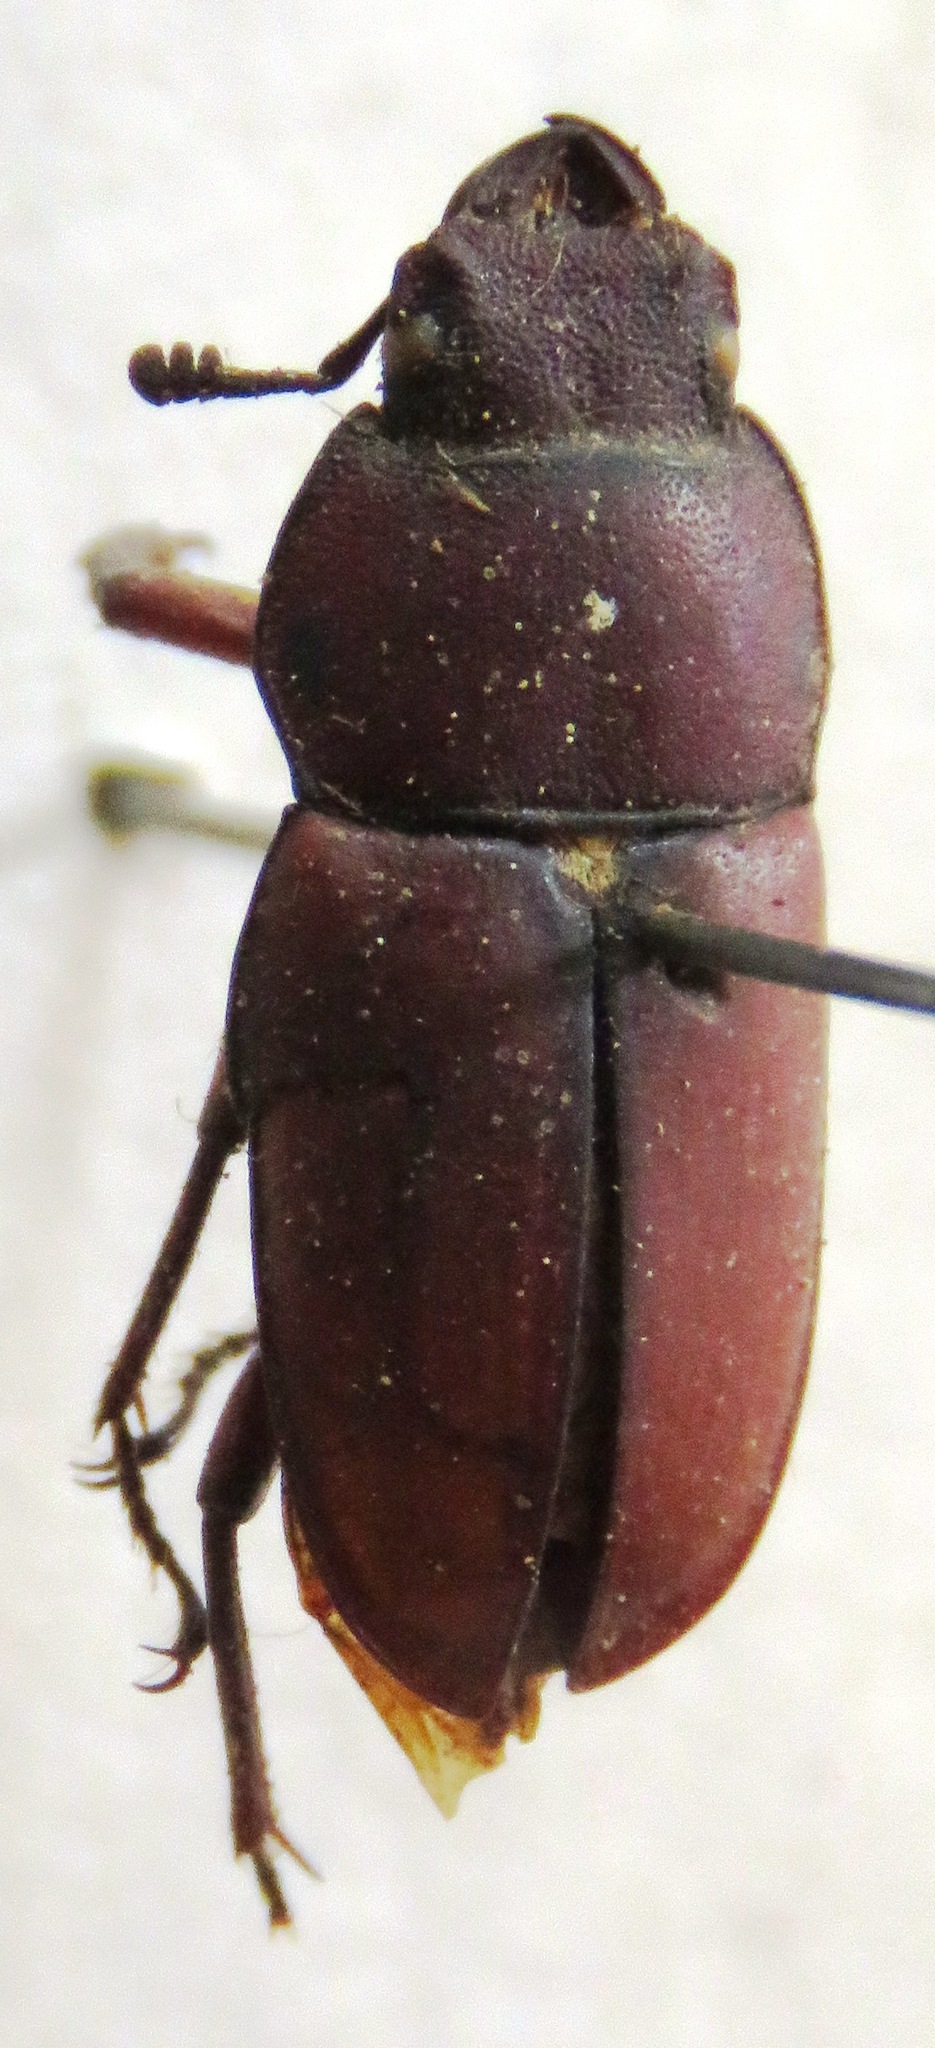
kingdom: Animalia
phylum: Arthropoda
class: Insecta
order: Coleoptera
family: Lucanidae
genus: Leptinopterus
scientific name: Leptinopterus burmeisteri
